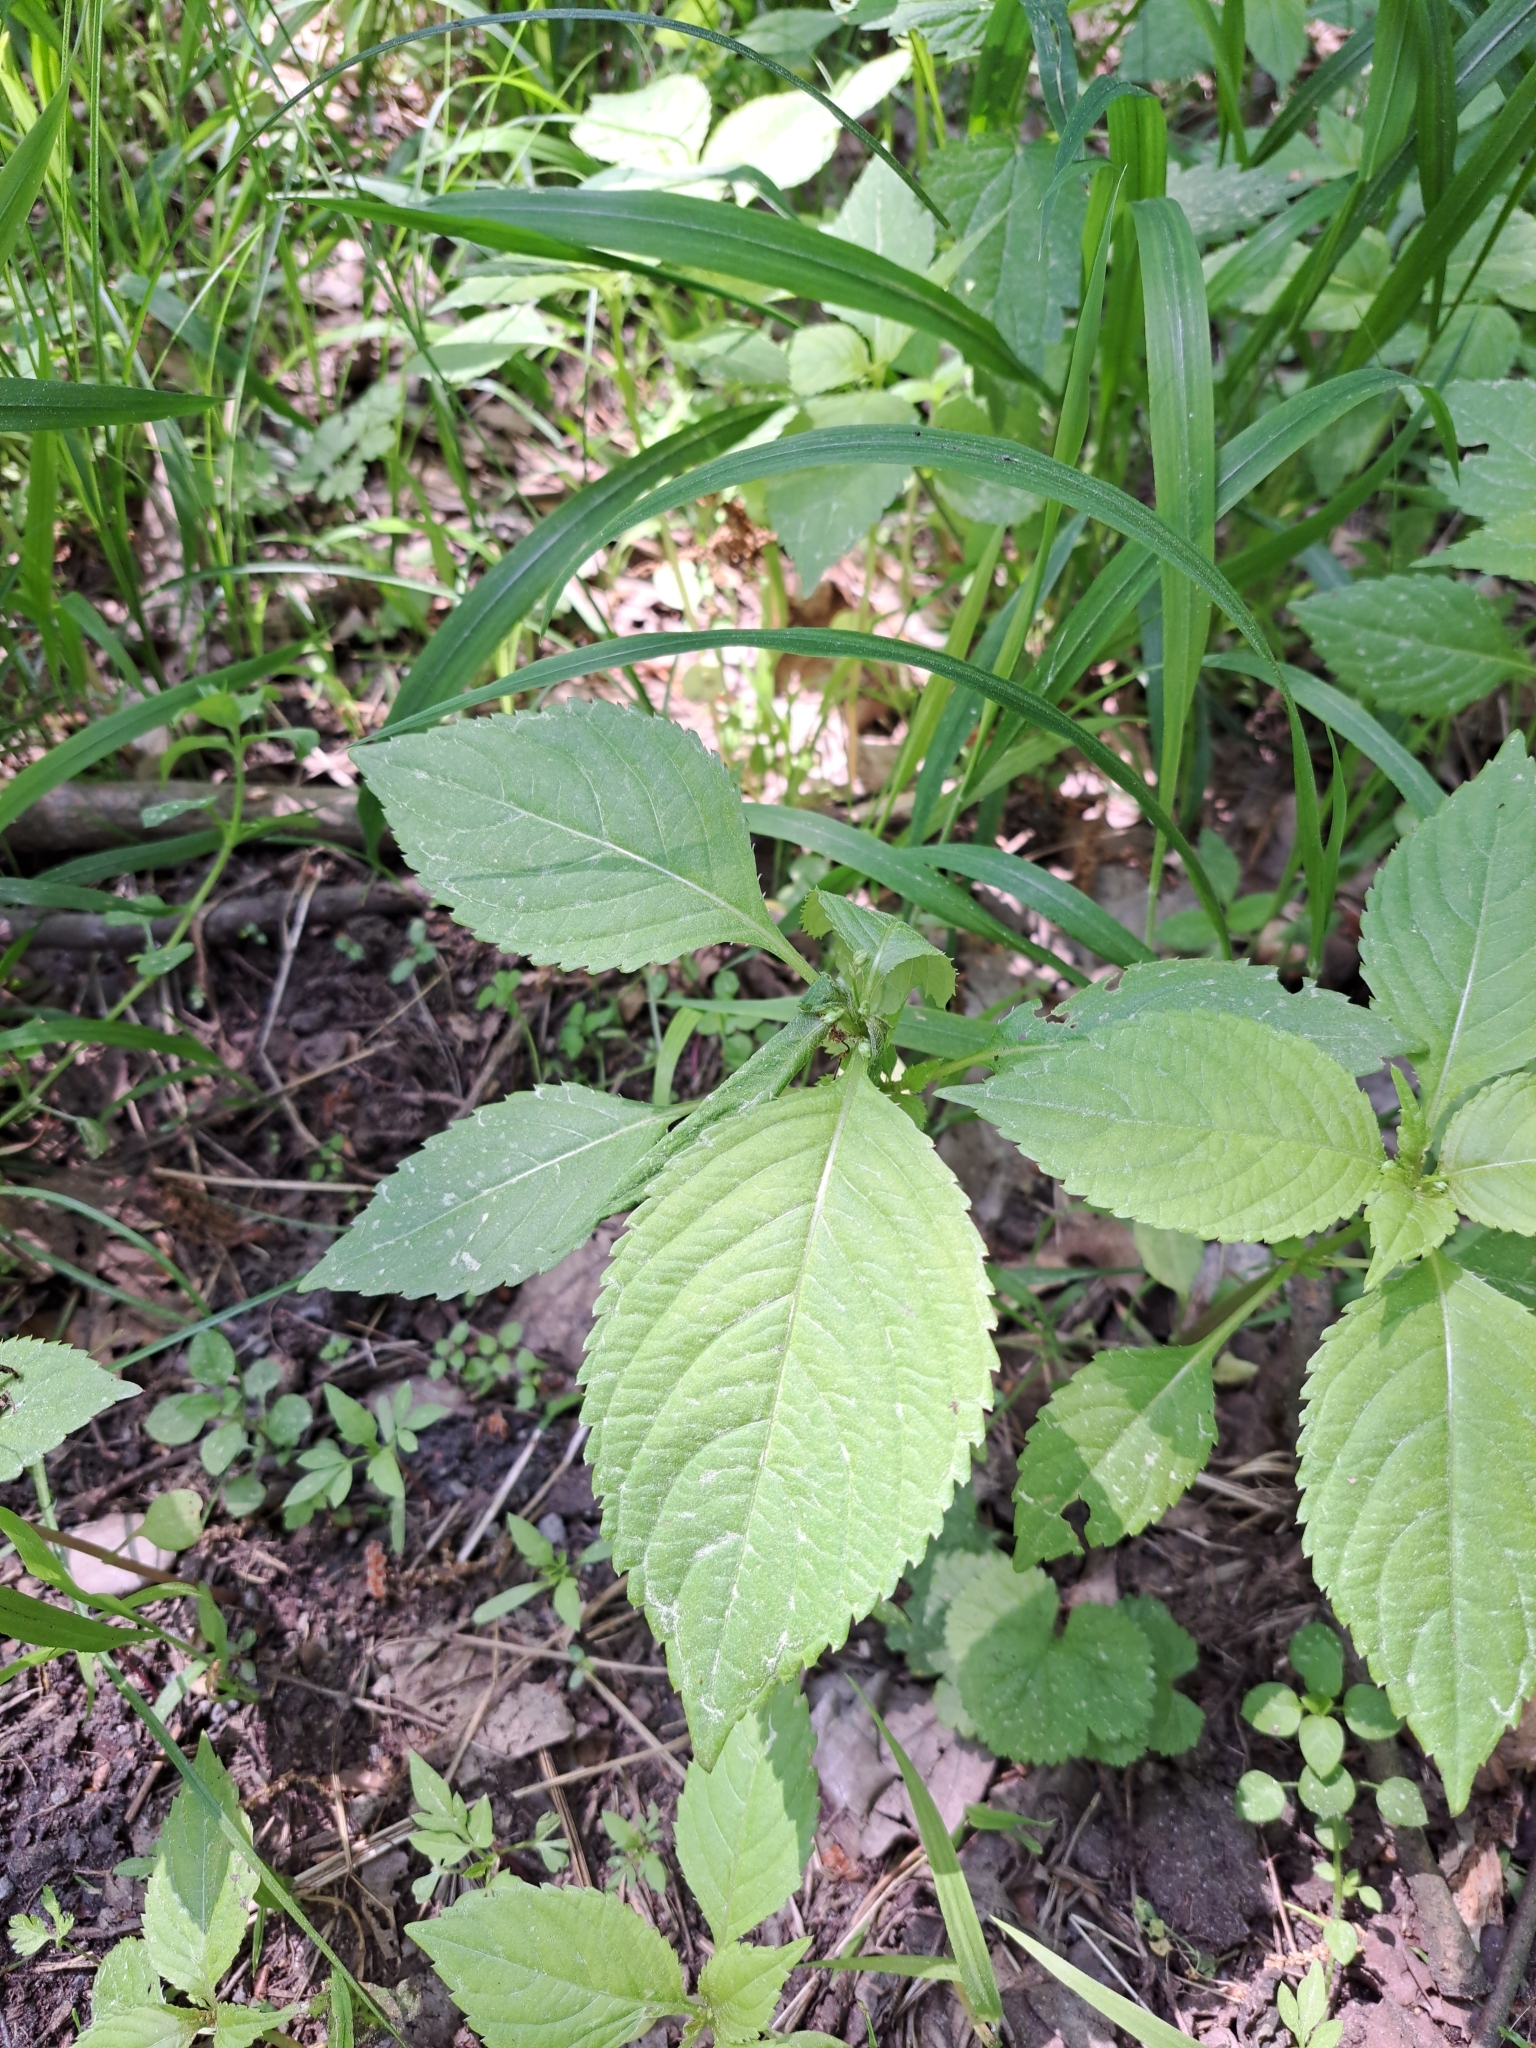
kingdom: Plantae
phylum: Tracheophyta
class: Magnoliopsida
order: Ericales
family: Balsaminaceae
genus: Impatiens
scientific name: Impatiens parviflora
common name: Small balsam
